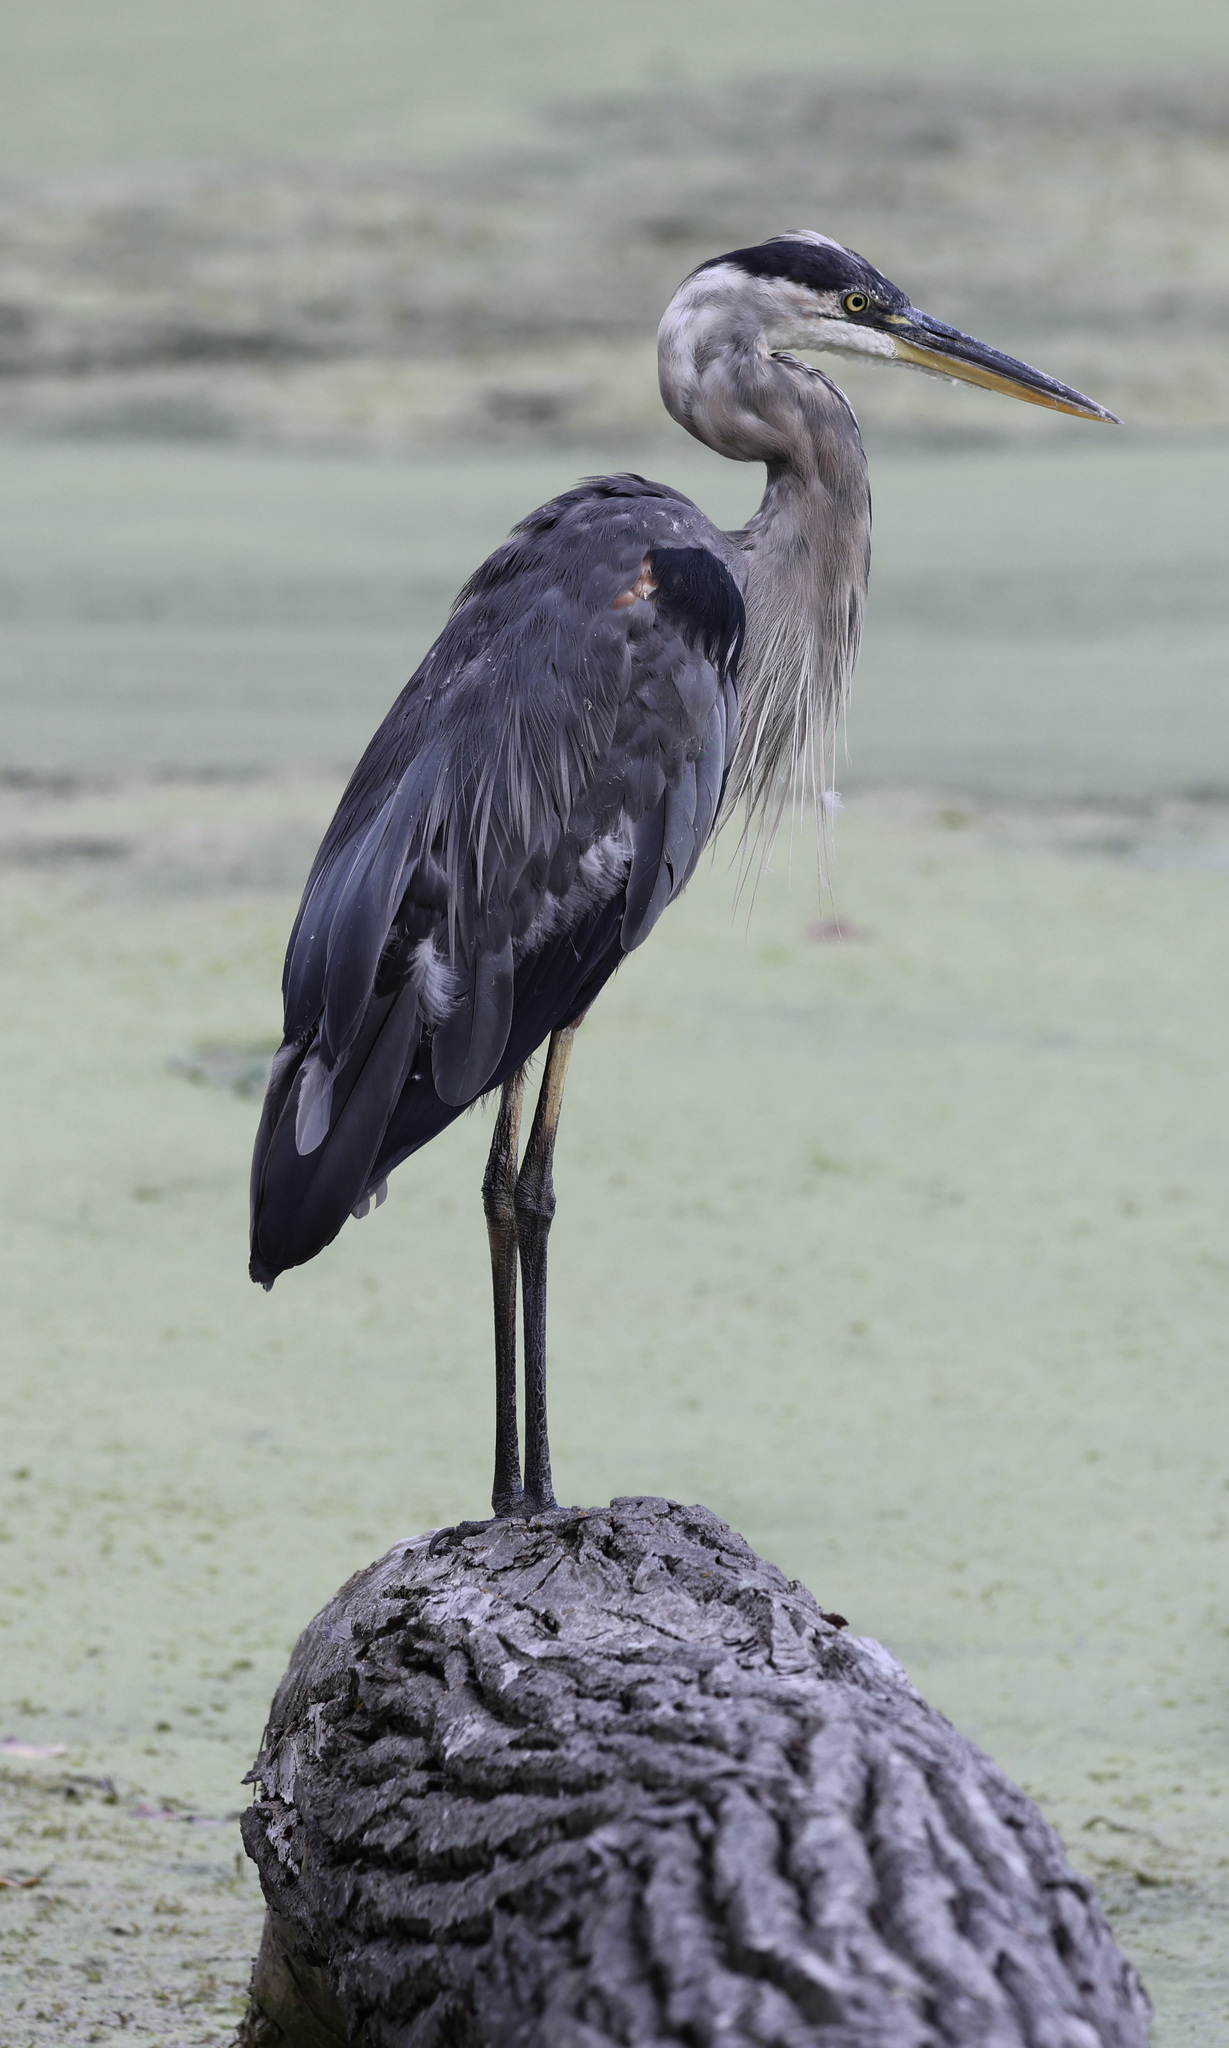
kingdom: Animalia
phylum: Chordata
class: Aves
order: Pelecaniformes
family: Ardeidae
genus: Ardea
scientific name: Ardea herodias
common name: Great blue heron
